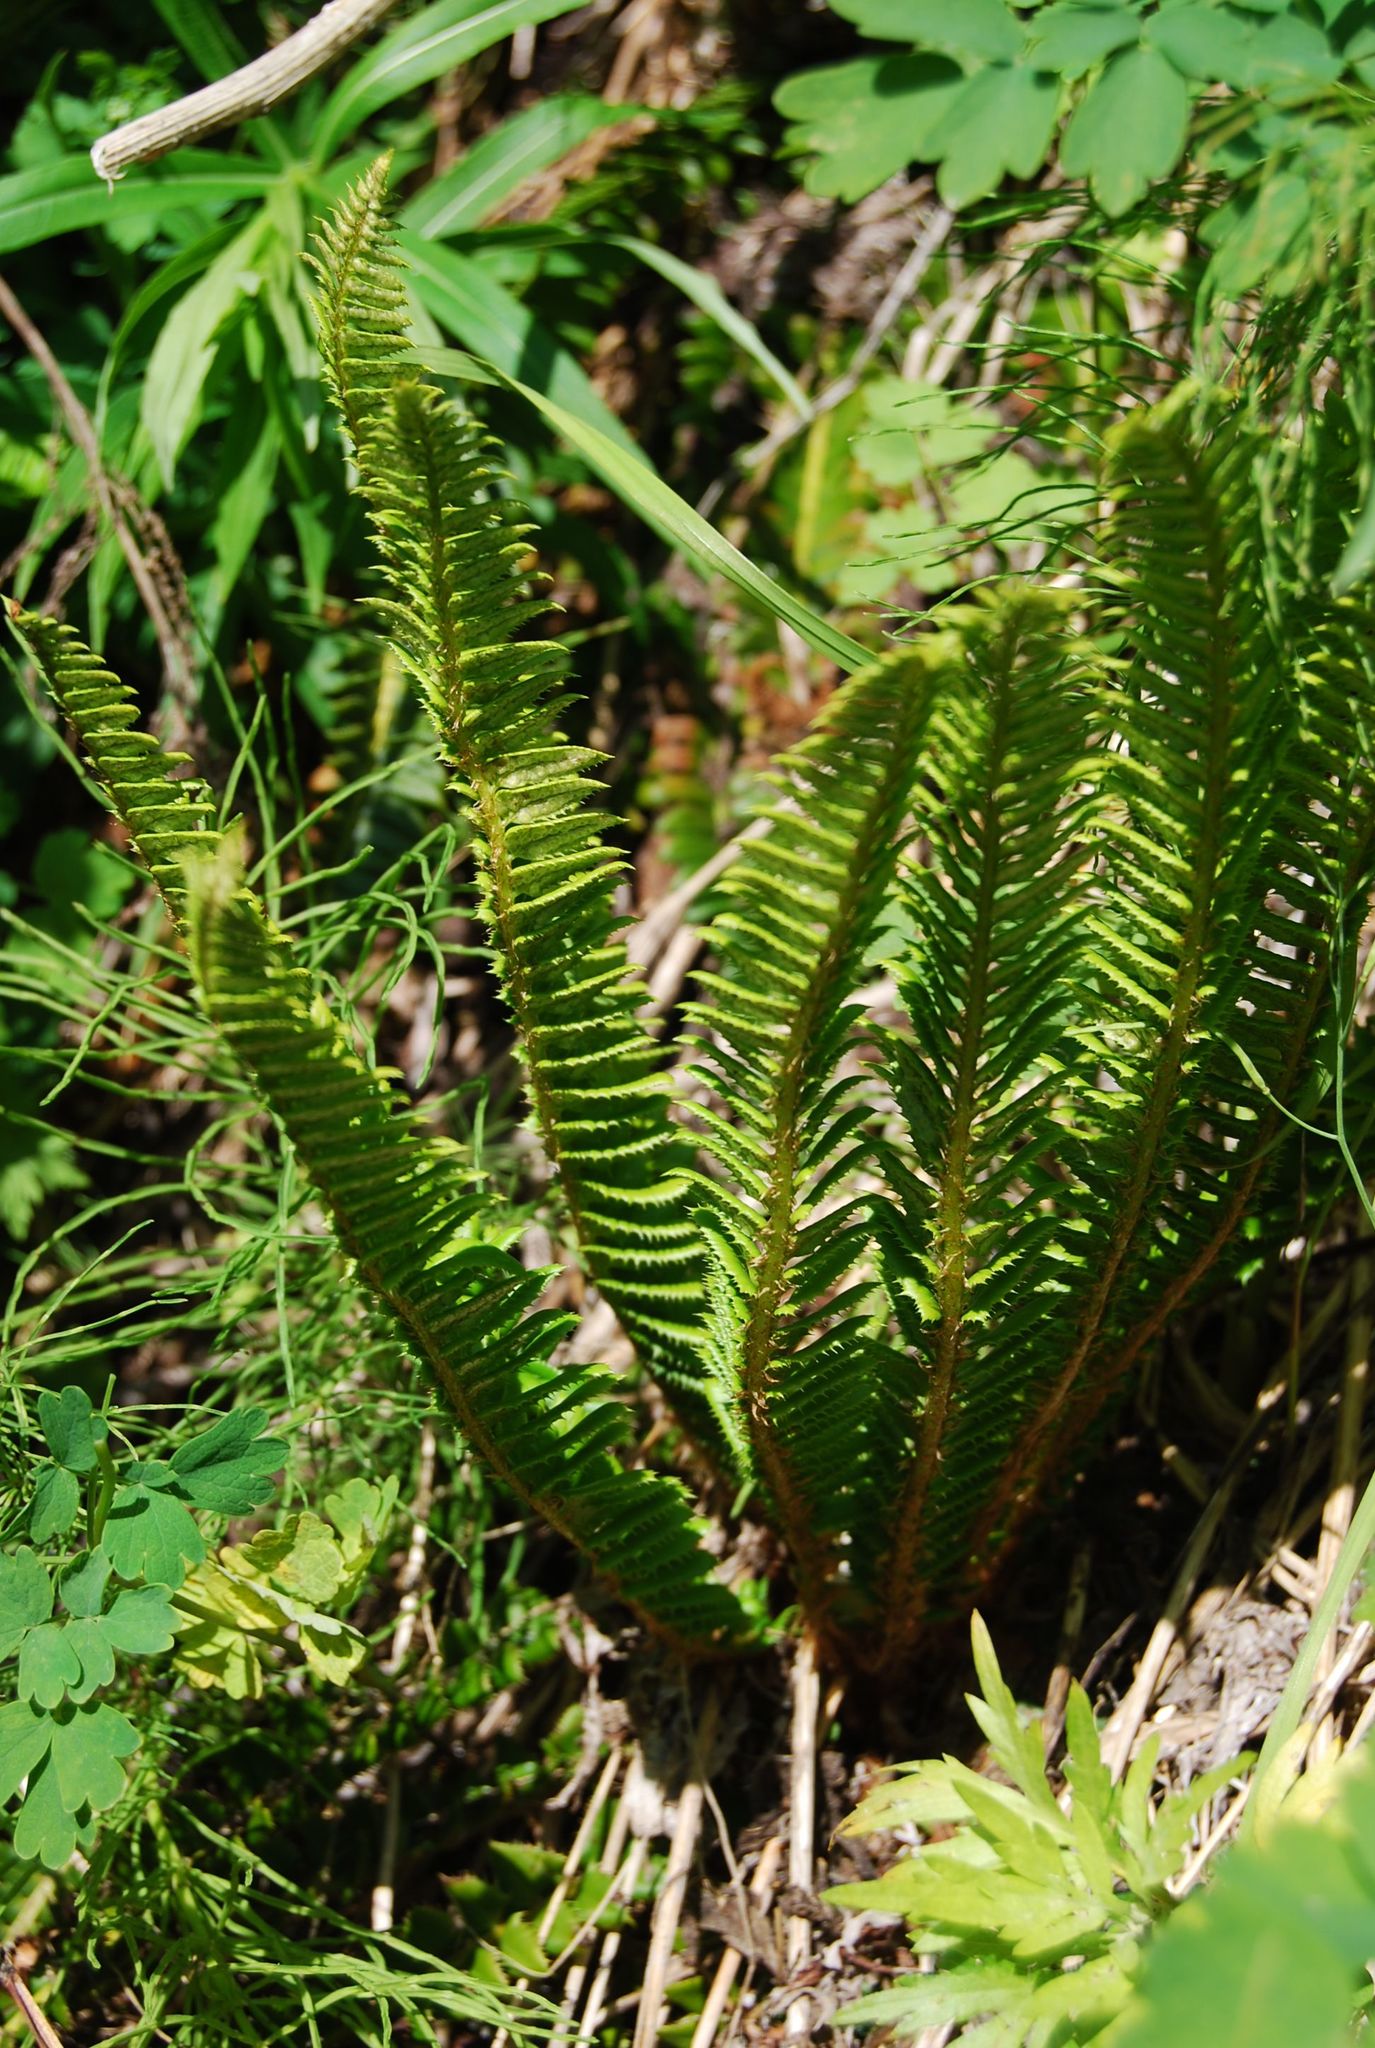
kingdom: Plantae
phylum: Tracheophyta
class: Polypodiopsida
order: Polypodiales
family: Dryopteridaceae
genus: Polystichum
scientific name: Polystichum lonchitis
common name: Holly fern
